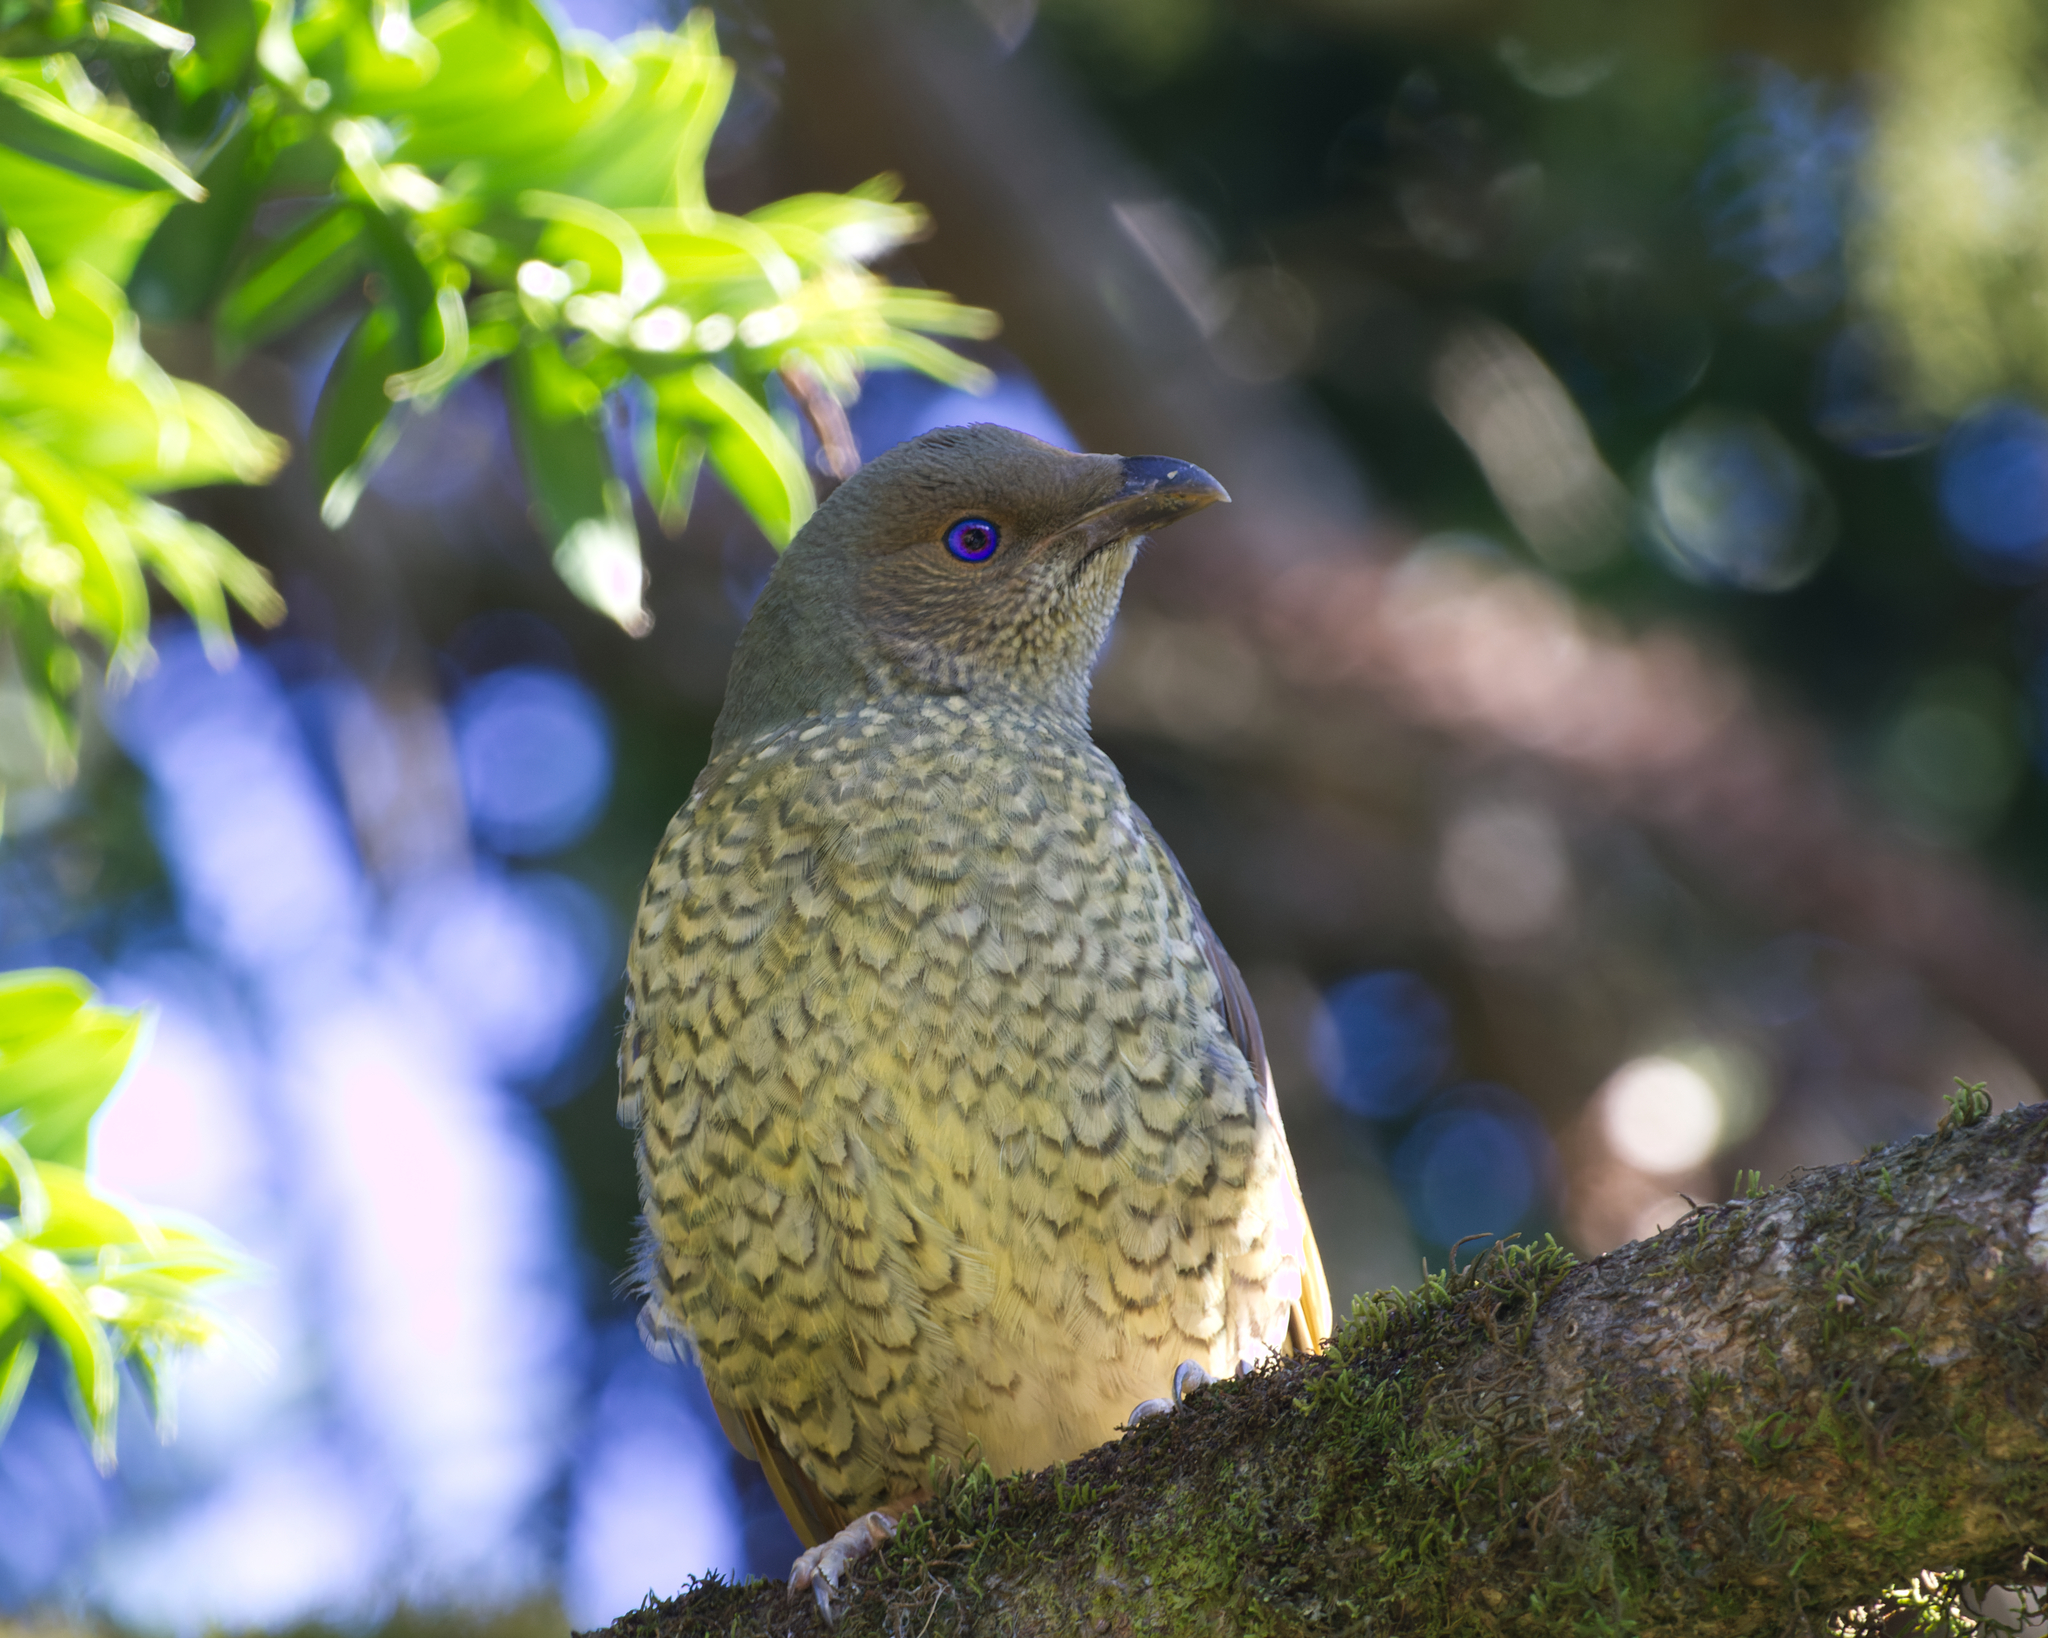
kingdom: Animalia
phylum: Chordata
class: Aves
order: Passeriformes
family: Ptilonorhynchidae
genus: Ptilonorhynchus
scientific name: Ptilonorhynchus violaceus
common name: Satin bowerbird
